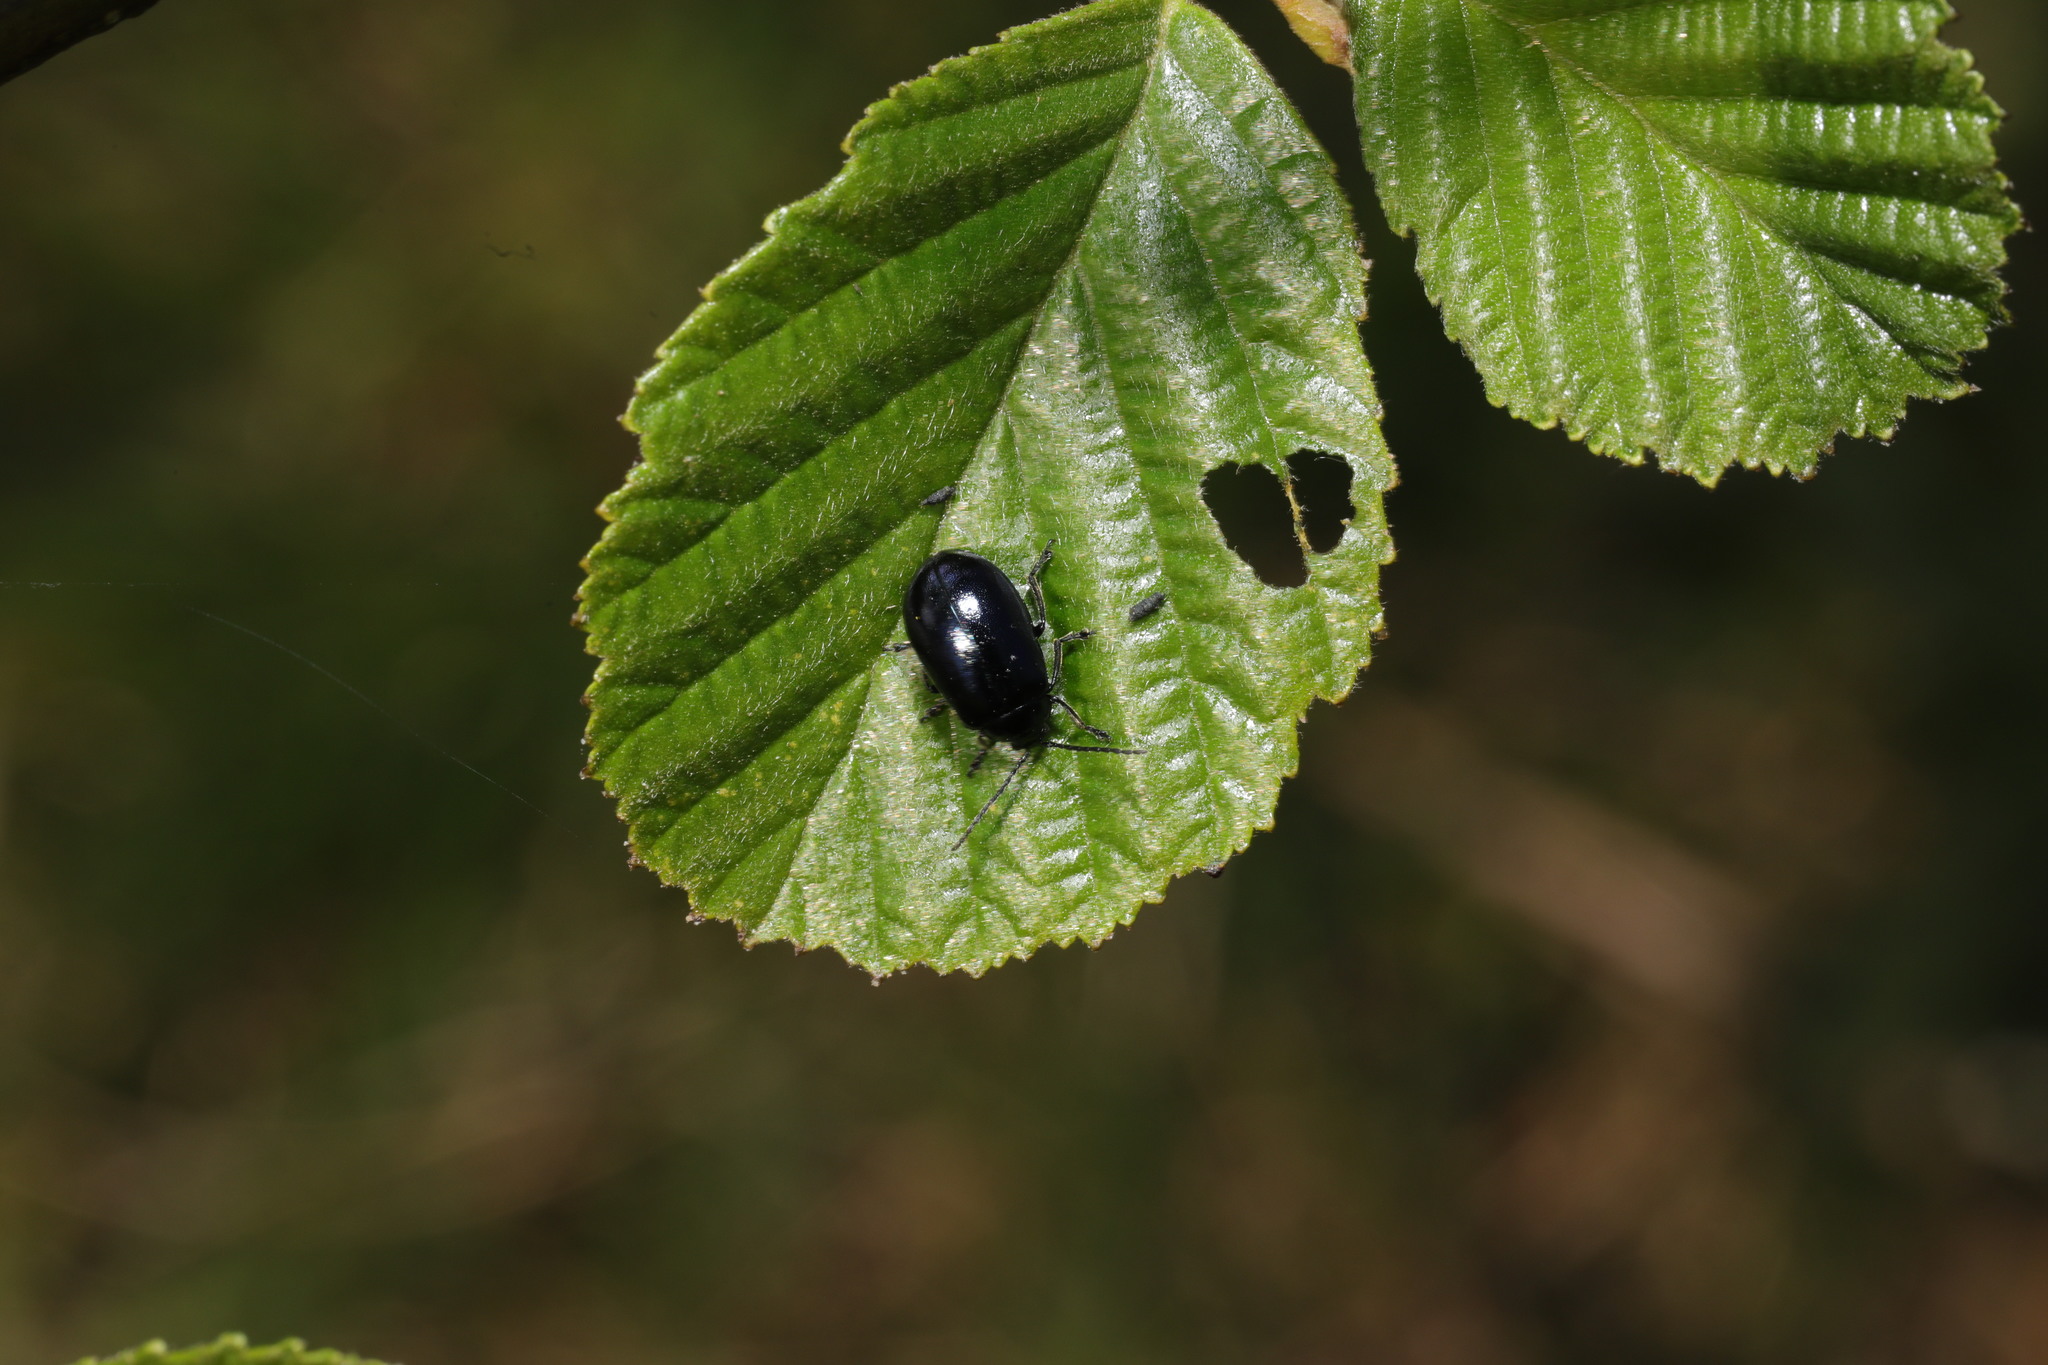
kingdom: Animalia
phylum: Arthropoda
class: Insecta
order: Coleoptera
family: Chrysomelidae
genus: Agelastica
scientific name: Agelastica alni
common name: Alder leaf beetle
